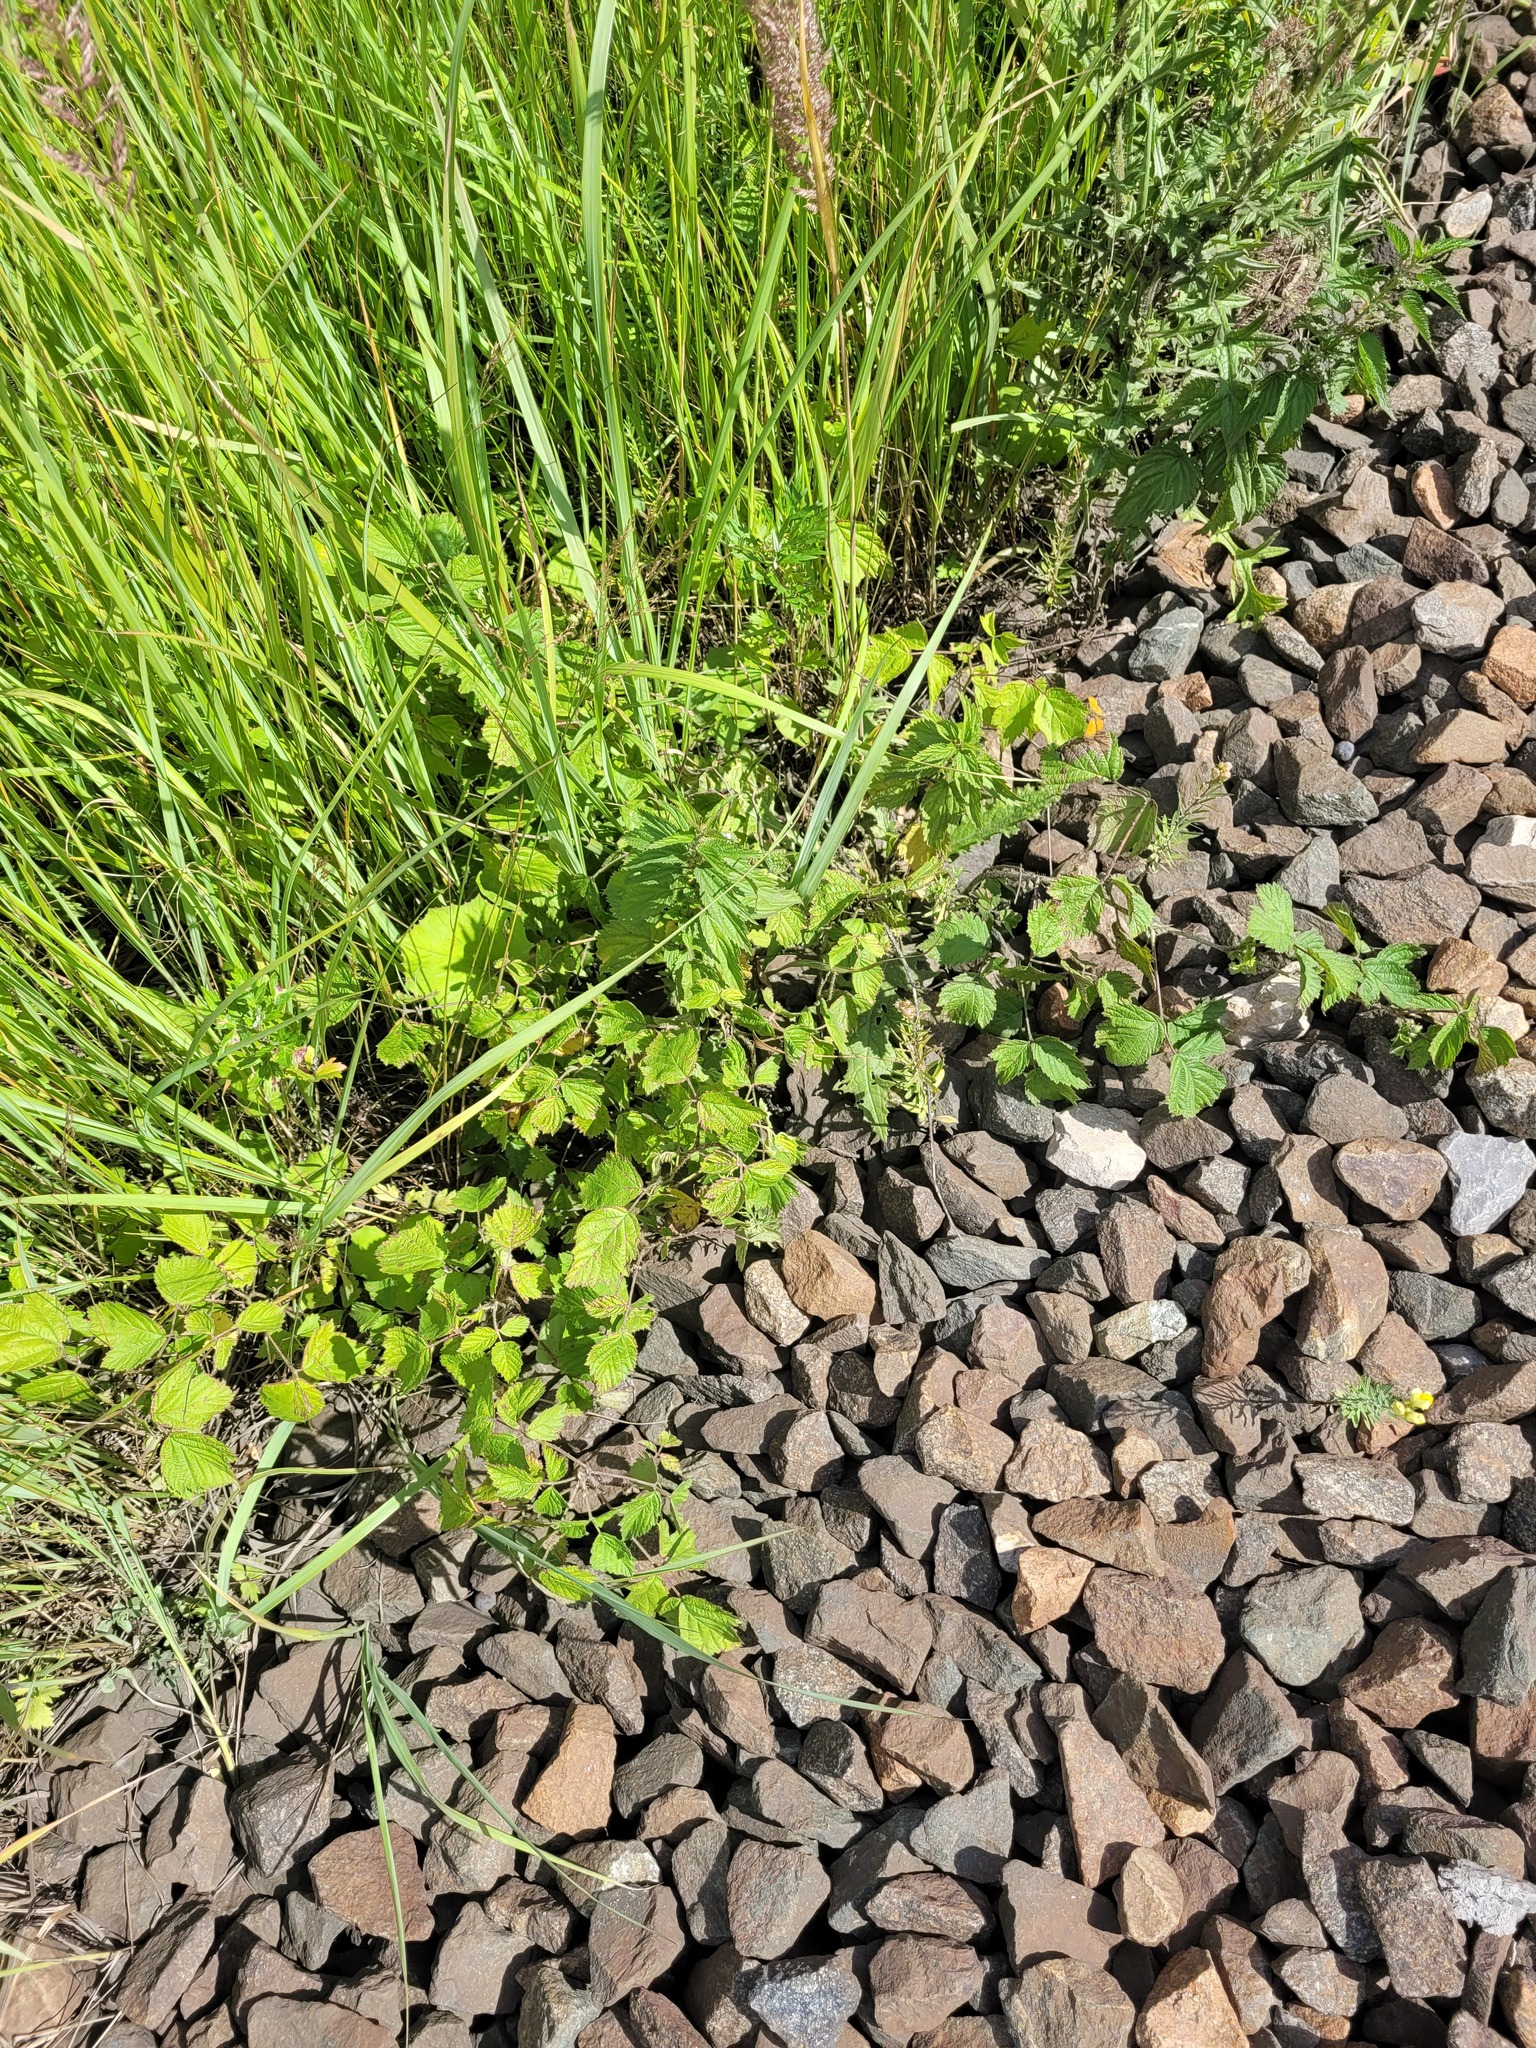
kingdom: Plantae
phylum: Tracheophyta
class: Magnoliopsida
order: Rosales
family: Rosaceae
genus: Rubus
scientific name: Rubus caesius
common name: Dewberry
